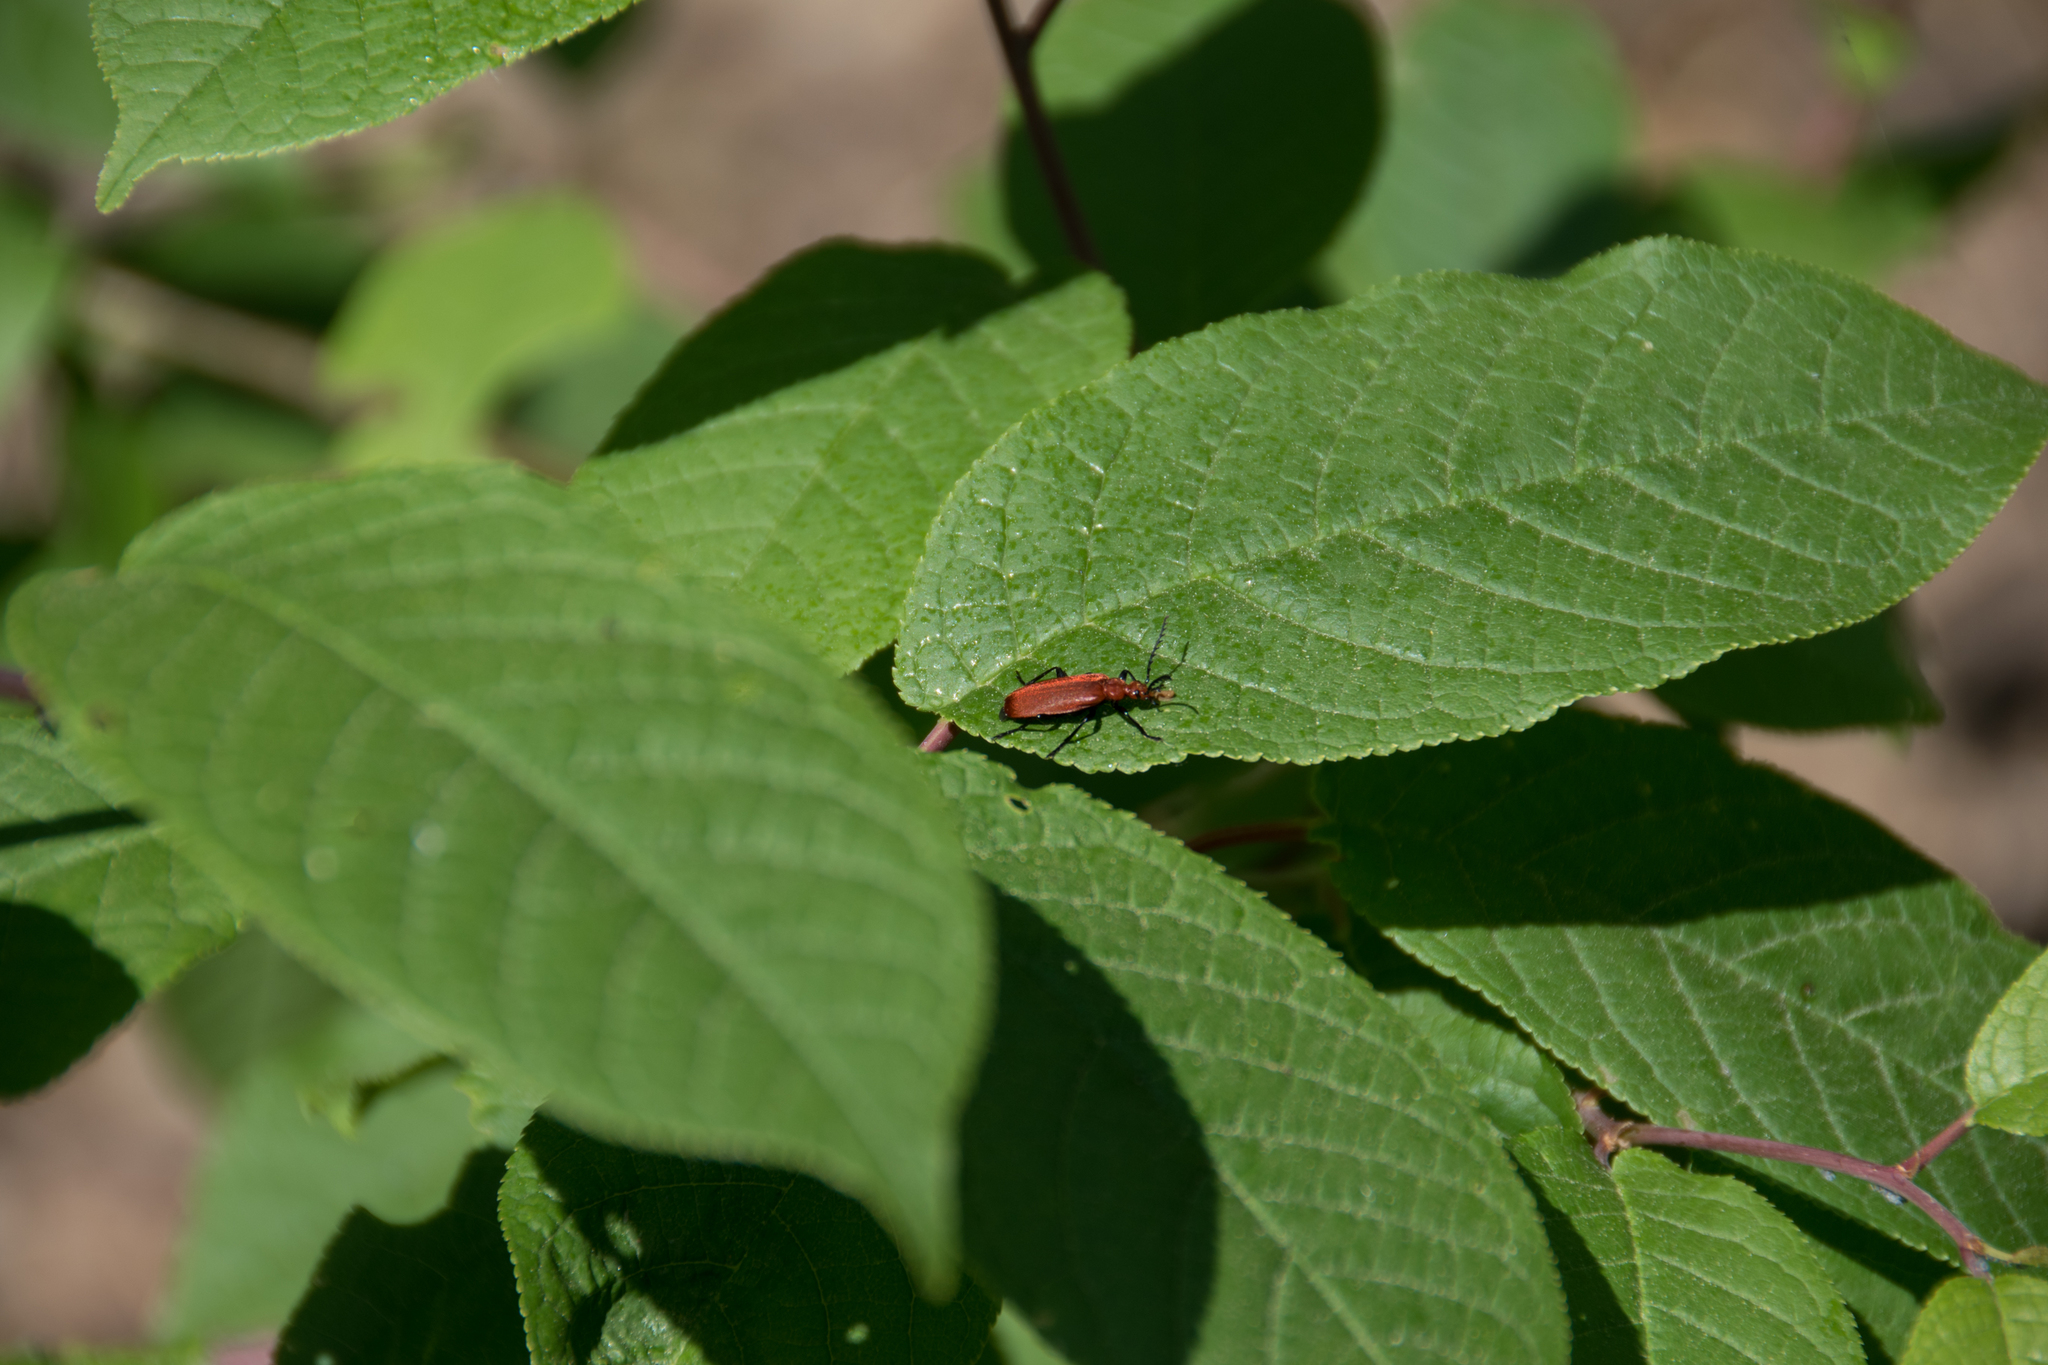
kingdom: Animalia
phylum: Arthropoda
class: Insecta
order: Coleoptera
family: Pyrochroidae
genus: Pyrochroa
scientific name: Pyrochroa serraticornis
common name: Red-headed cardinal beetle
